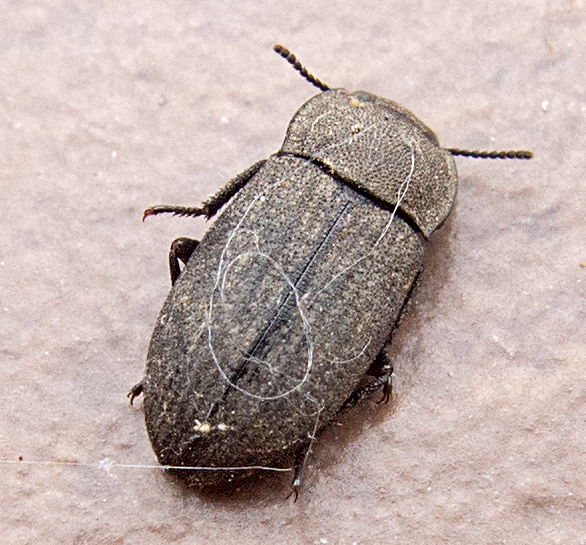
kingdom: Animalia
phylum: Arthropoda
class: Insecta
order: Coleoptera
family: Tenebrionidae
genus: Gonocephalum
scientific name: Gonocephalum granulatum
